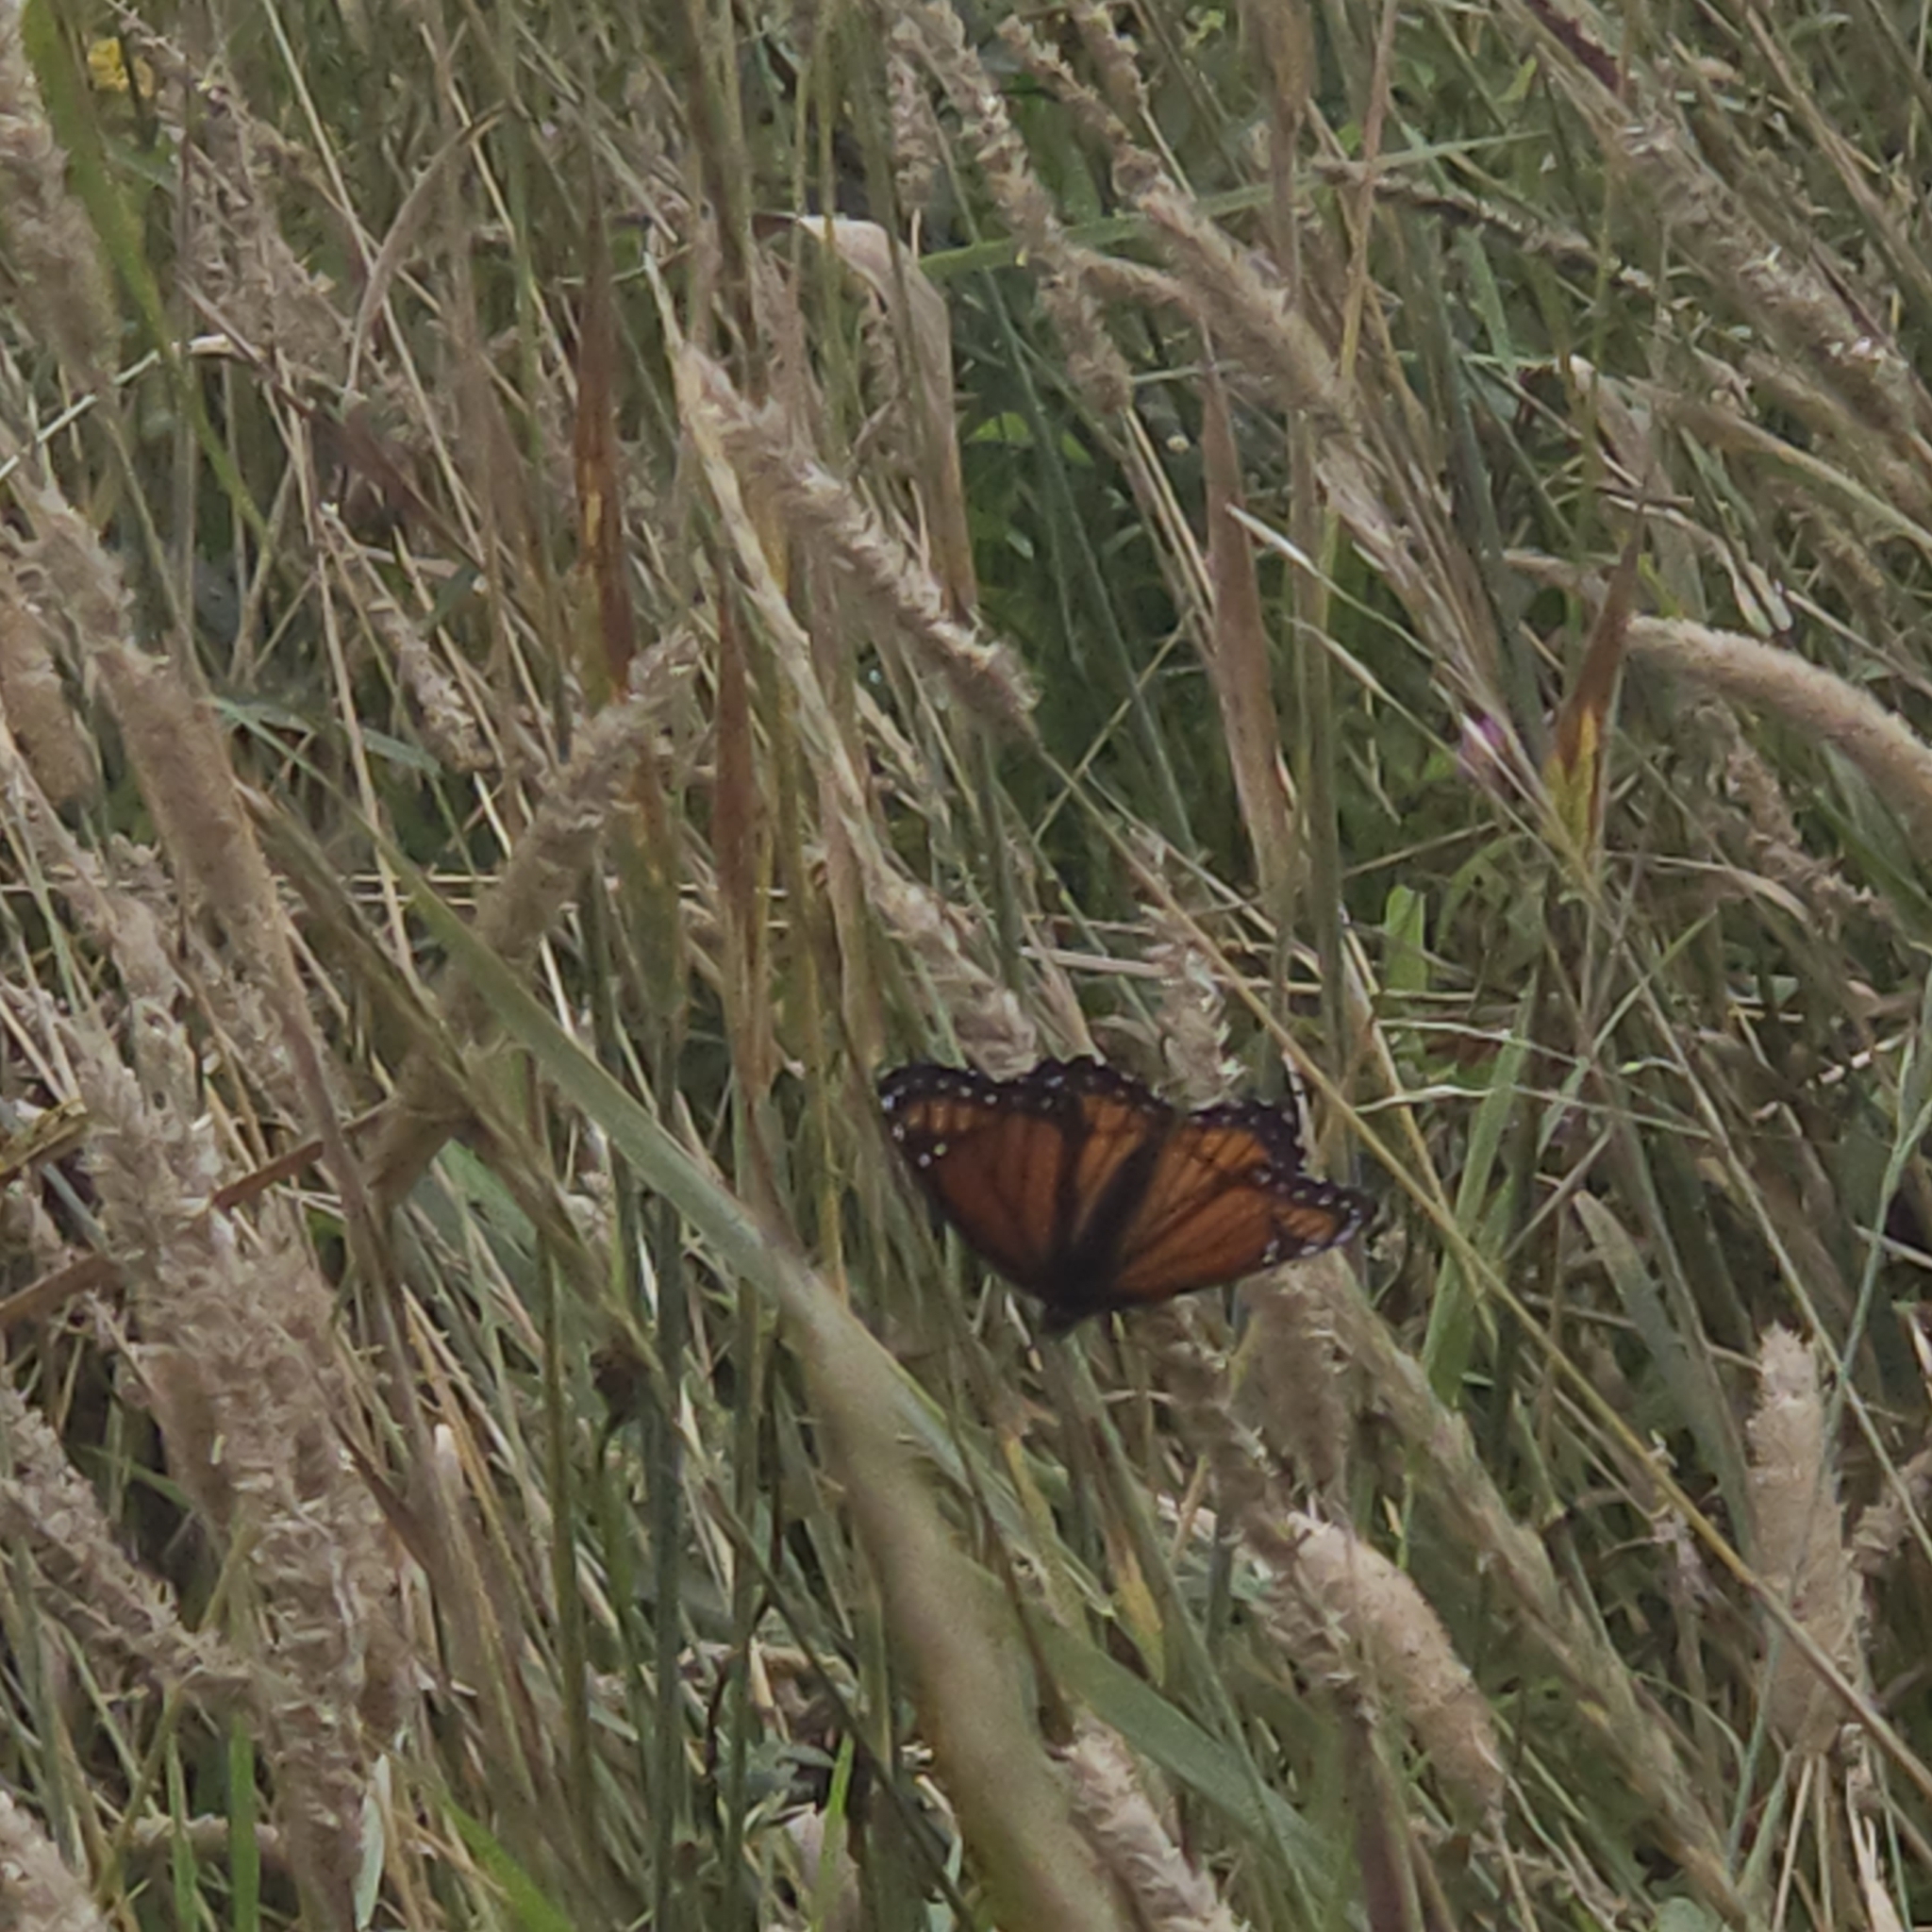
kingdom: Animalia
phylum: Arthropoda
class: Insecta
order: Lepidoptera
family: Nymphalidae
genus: Limenitis
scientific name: Limenitis archippus
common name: Viceroy
